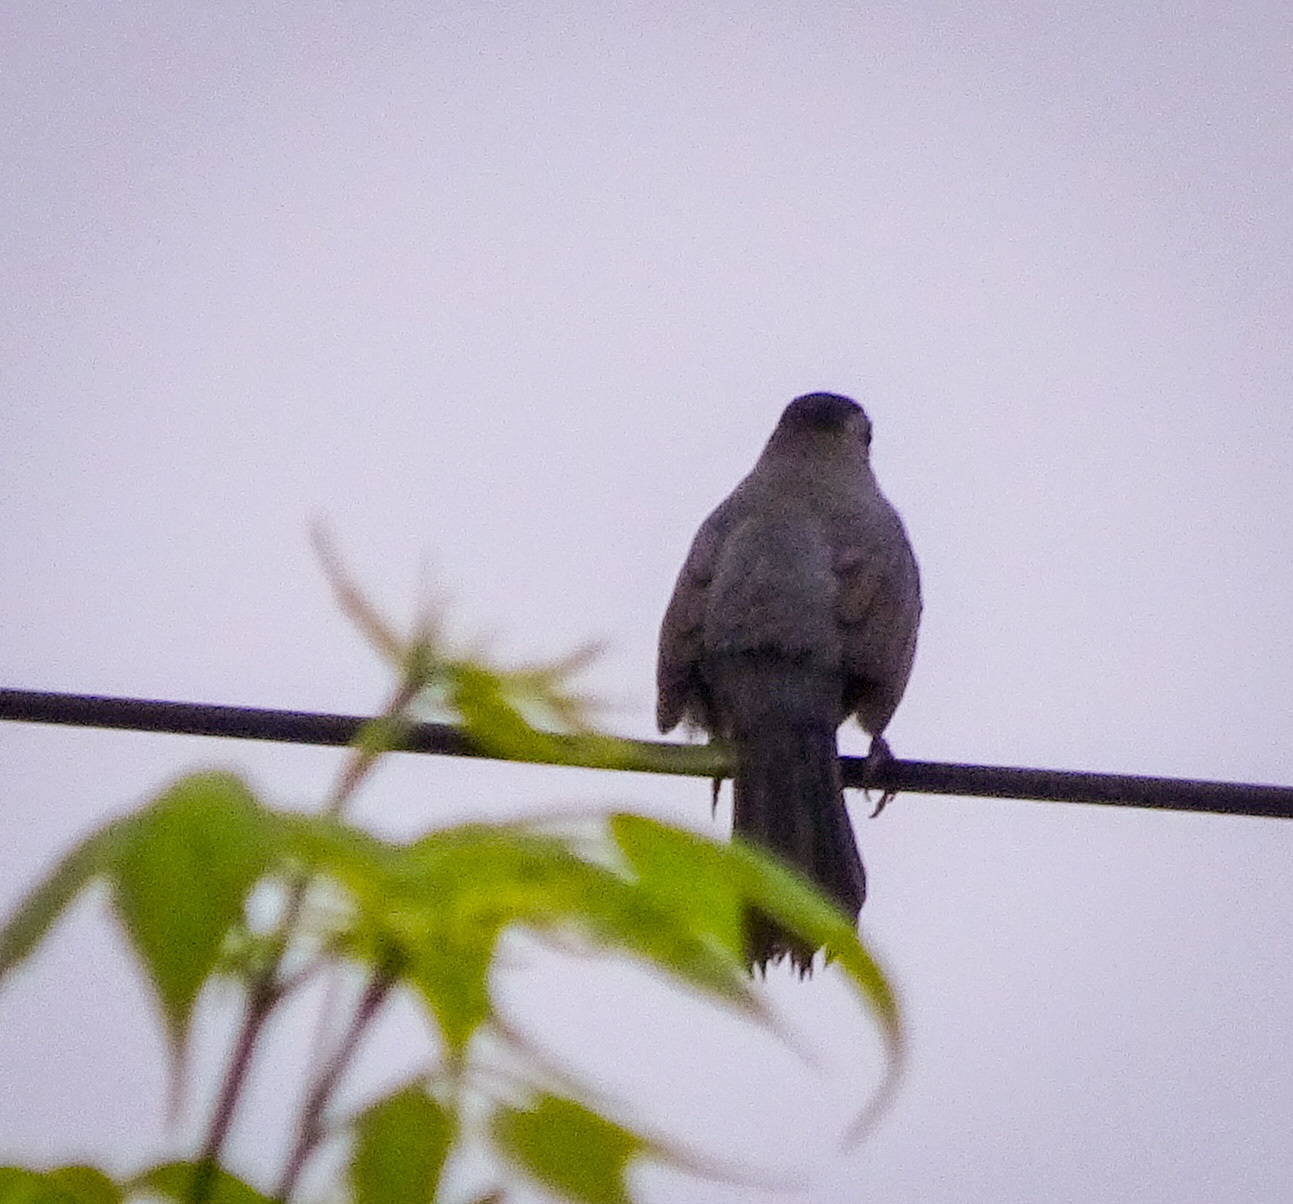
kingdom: Animalia
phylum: Chordata
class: Aves
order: Passeriformes
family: Mimidae
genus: Dumetella
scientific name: Dumetella carolinensis
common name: Gray catbird
